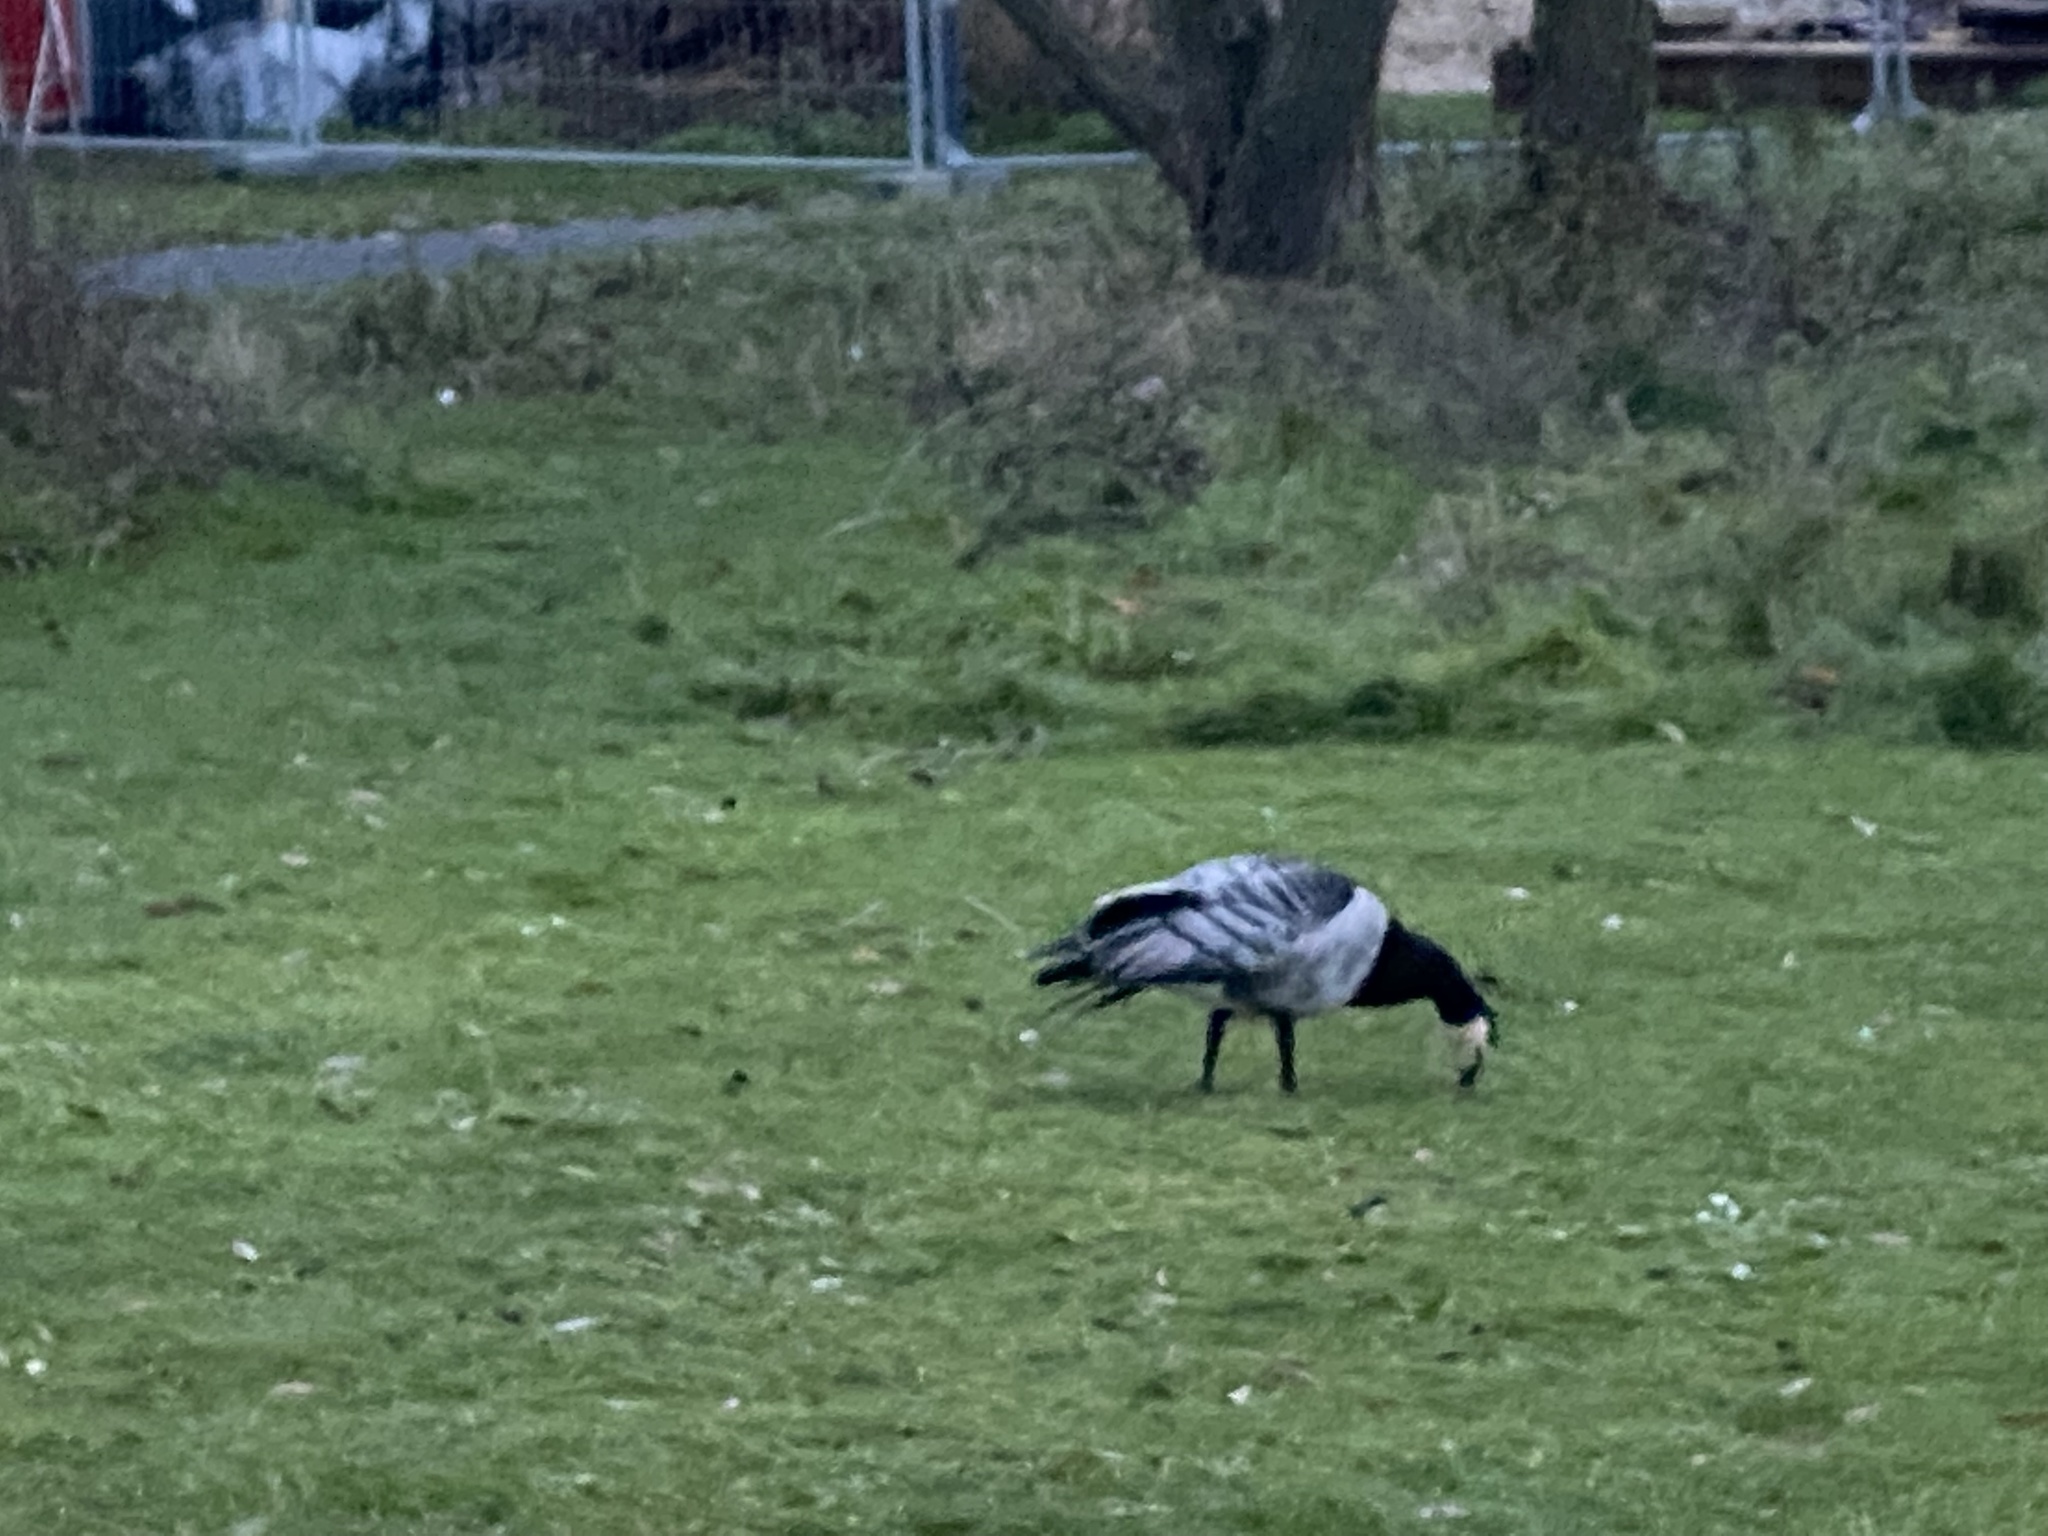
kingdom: Animalia
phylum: Chordata
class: Aves
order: Anseriformes
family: Anatidae
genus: Branta
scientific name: Branta leucopsis
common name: Barnacle goose
